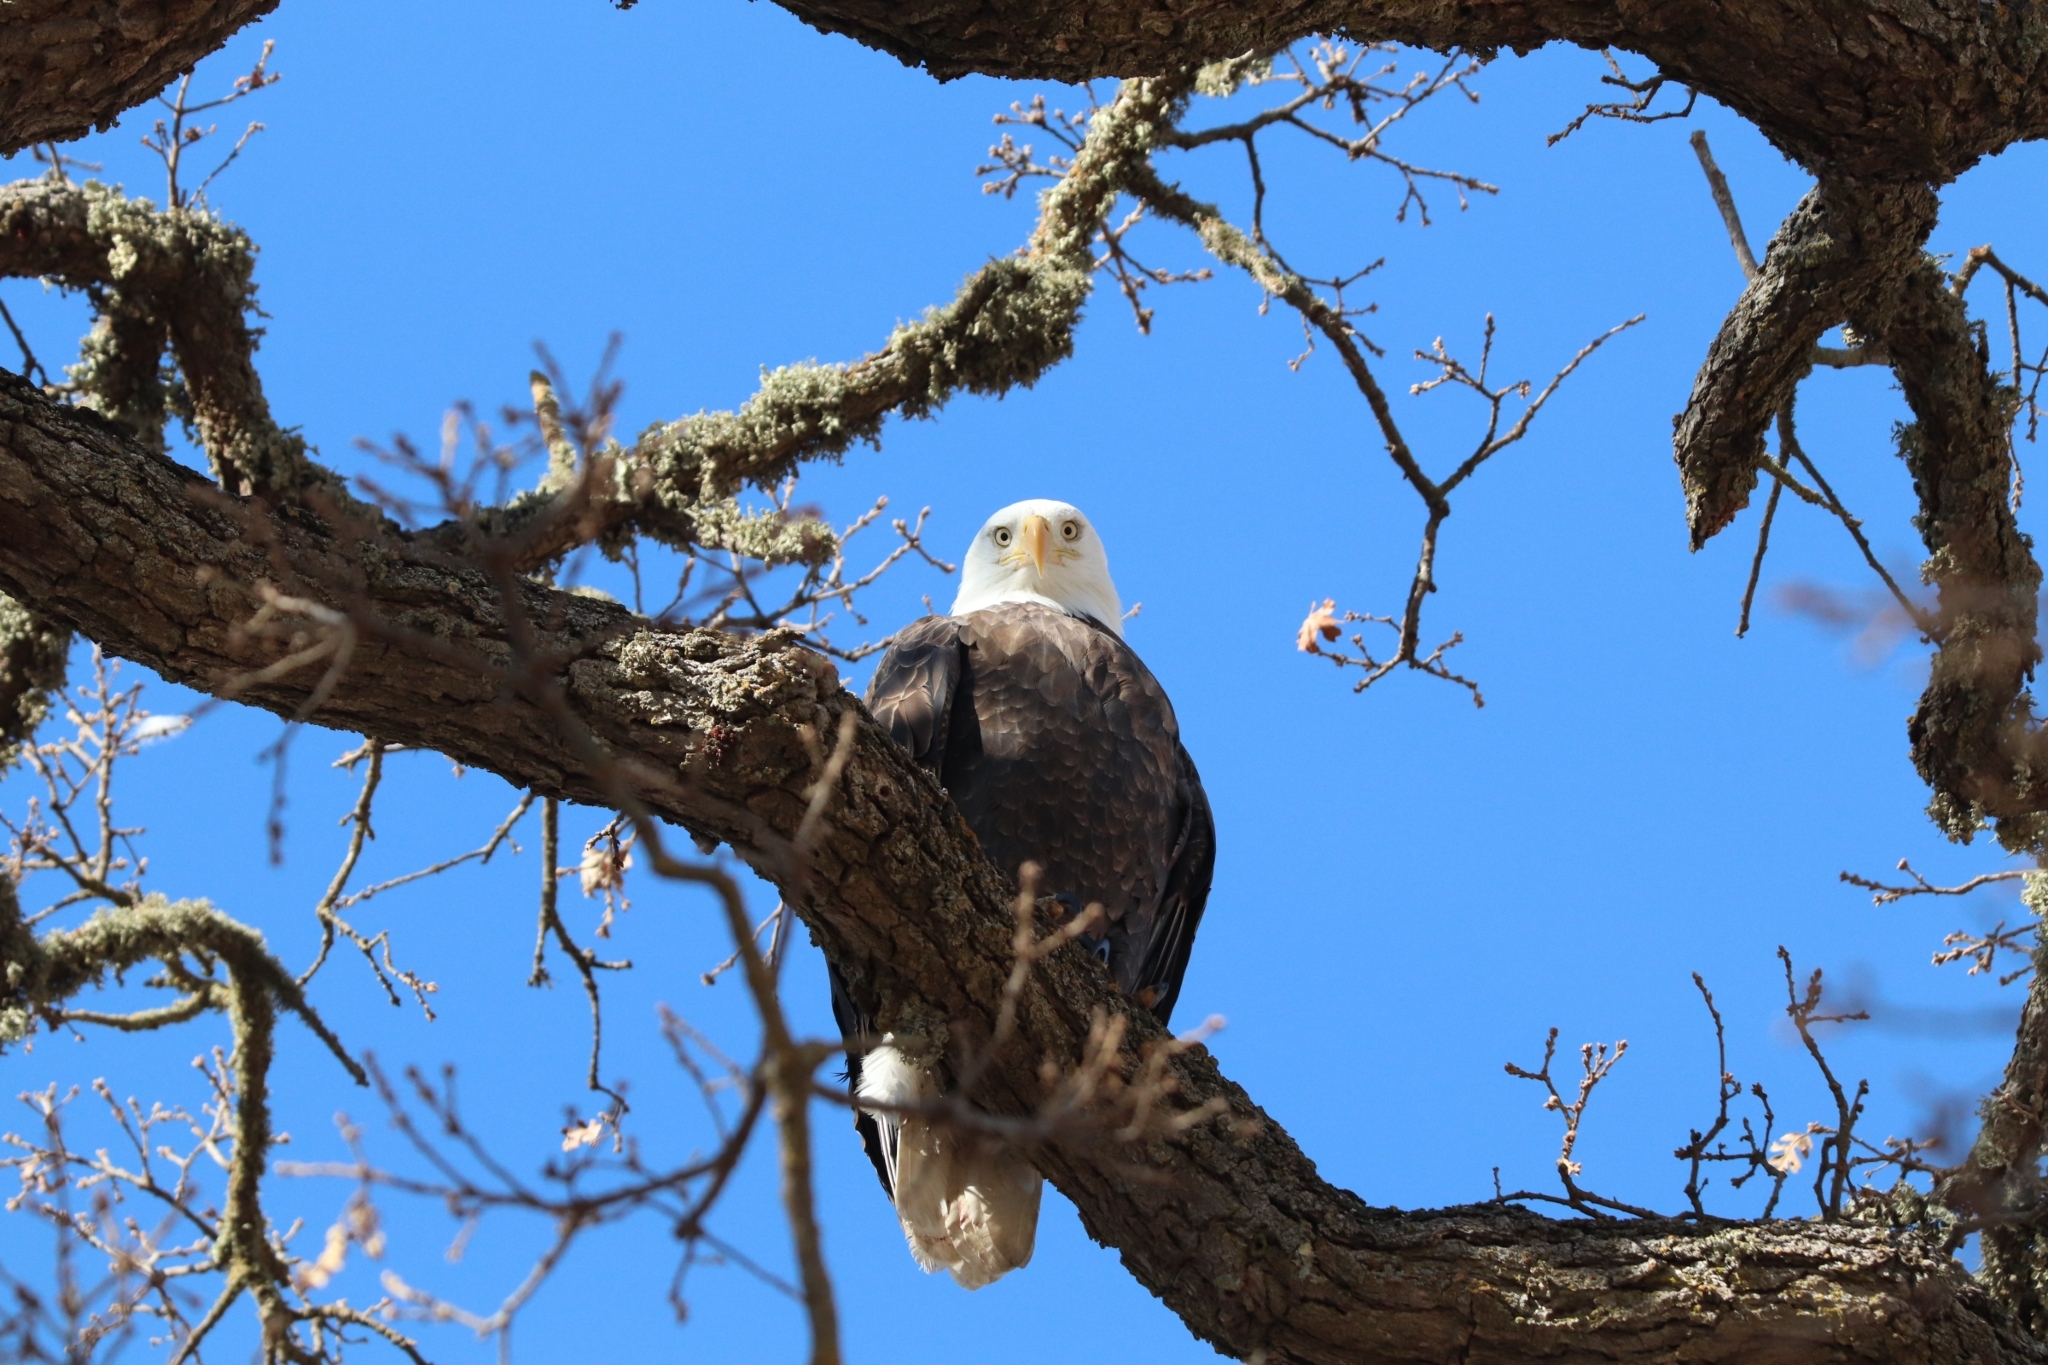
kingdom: Animalia
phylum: Chordata
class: Aves
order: Accipitriformes
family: Accipitridae
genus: Haliaeetus
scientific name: Haliaeetus leucocephalus
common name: Bald eagle
